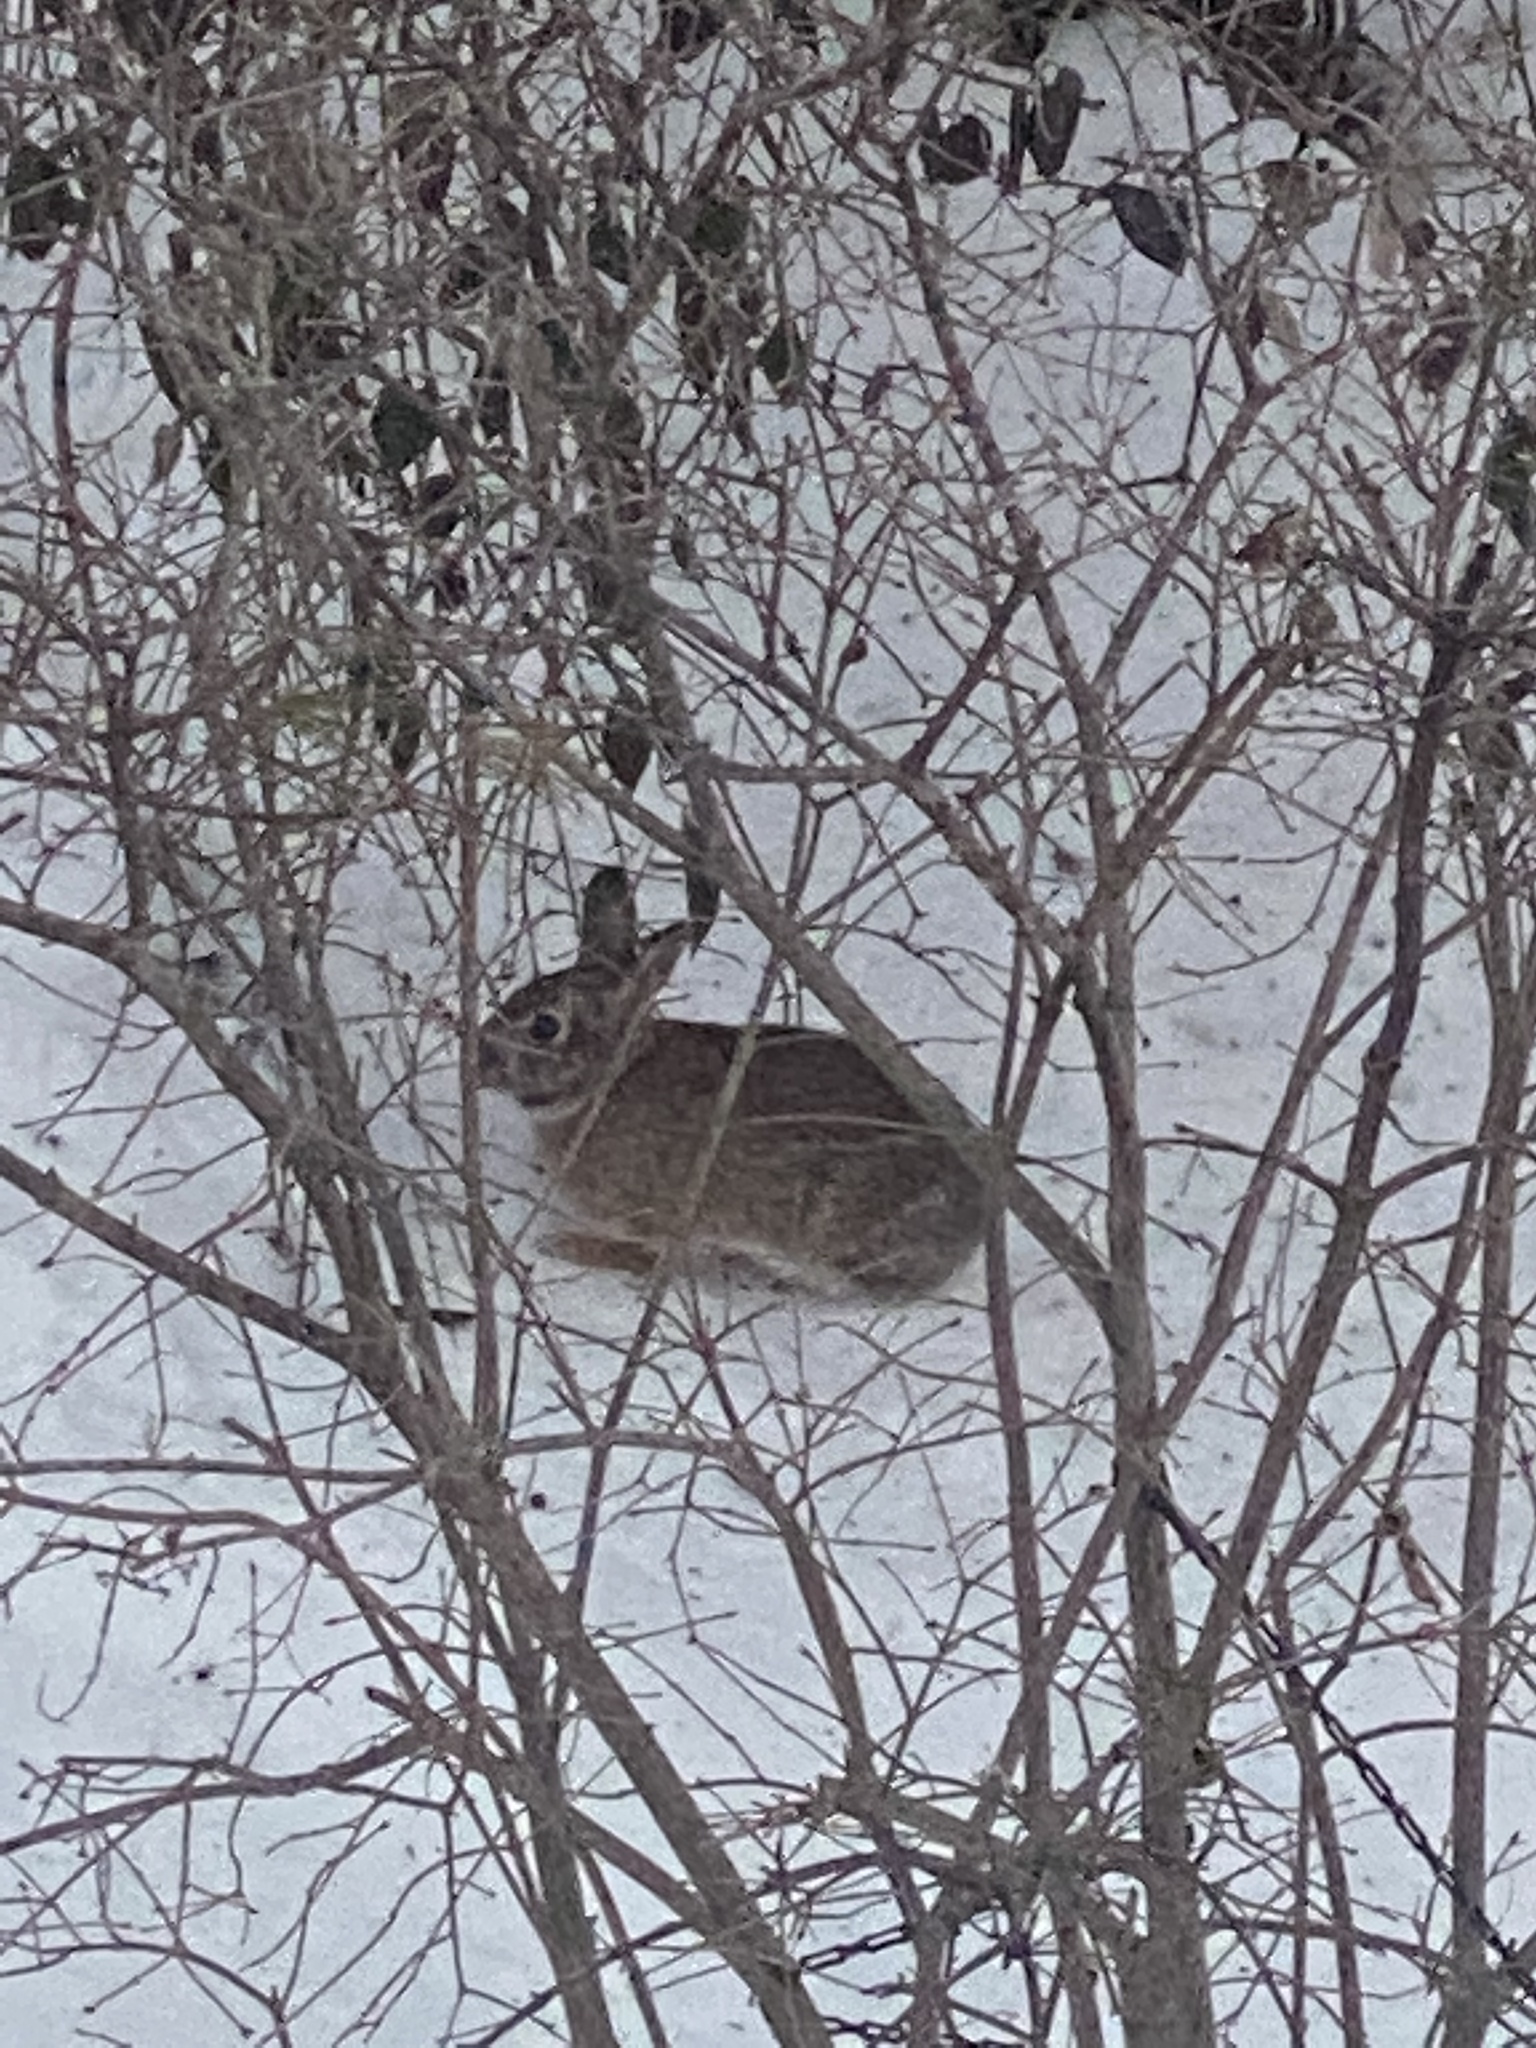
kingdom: Animalia
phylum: Chordata
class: Mammalia
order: Lagomorpha
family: Leporidae
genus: Sylvilagus
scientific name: Sylvilagus floridanus
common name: Eastern cottontail
